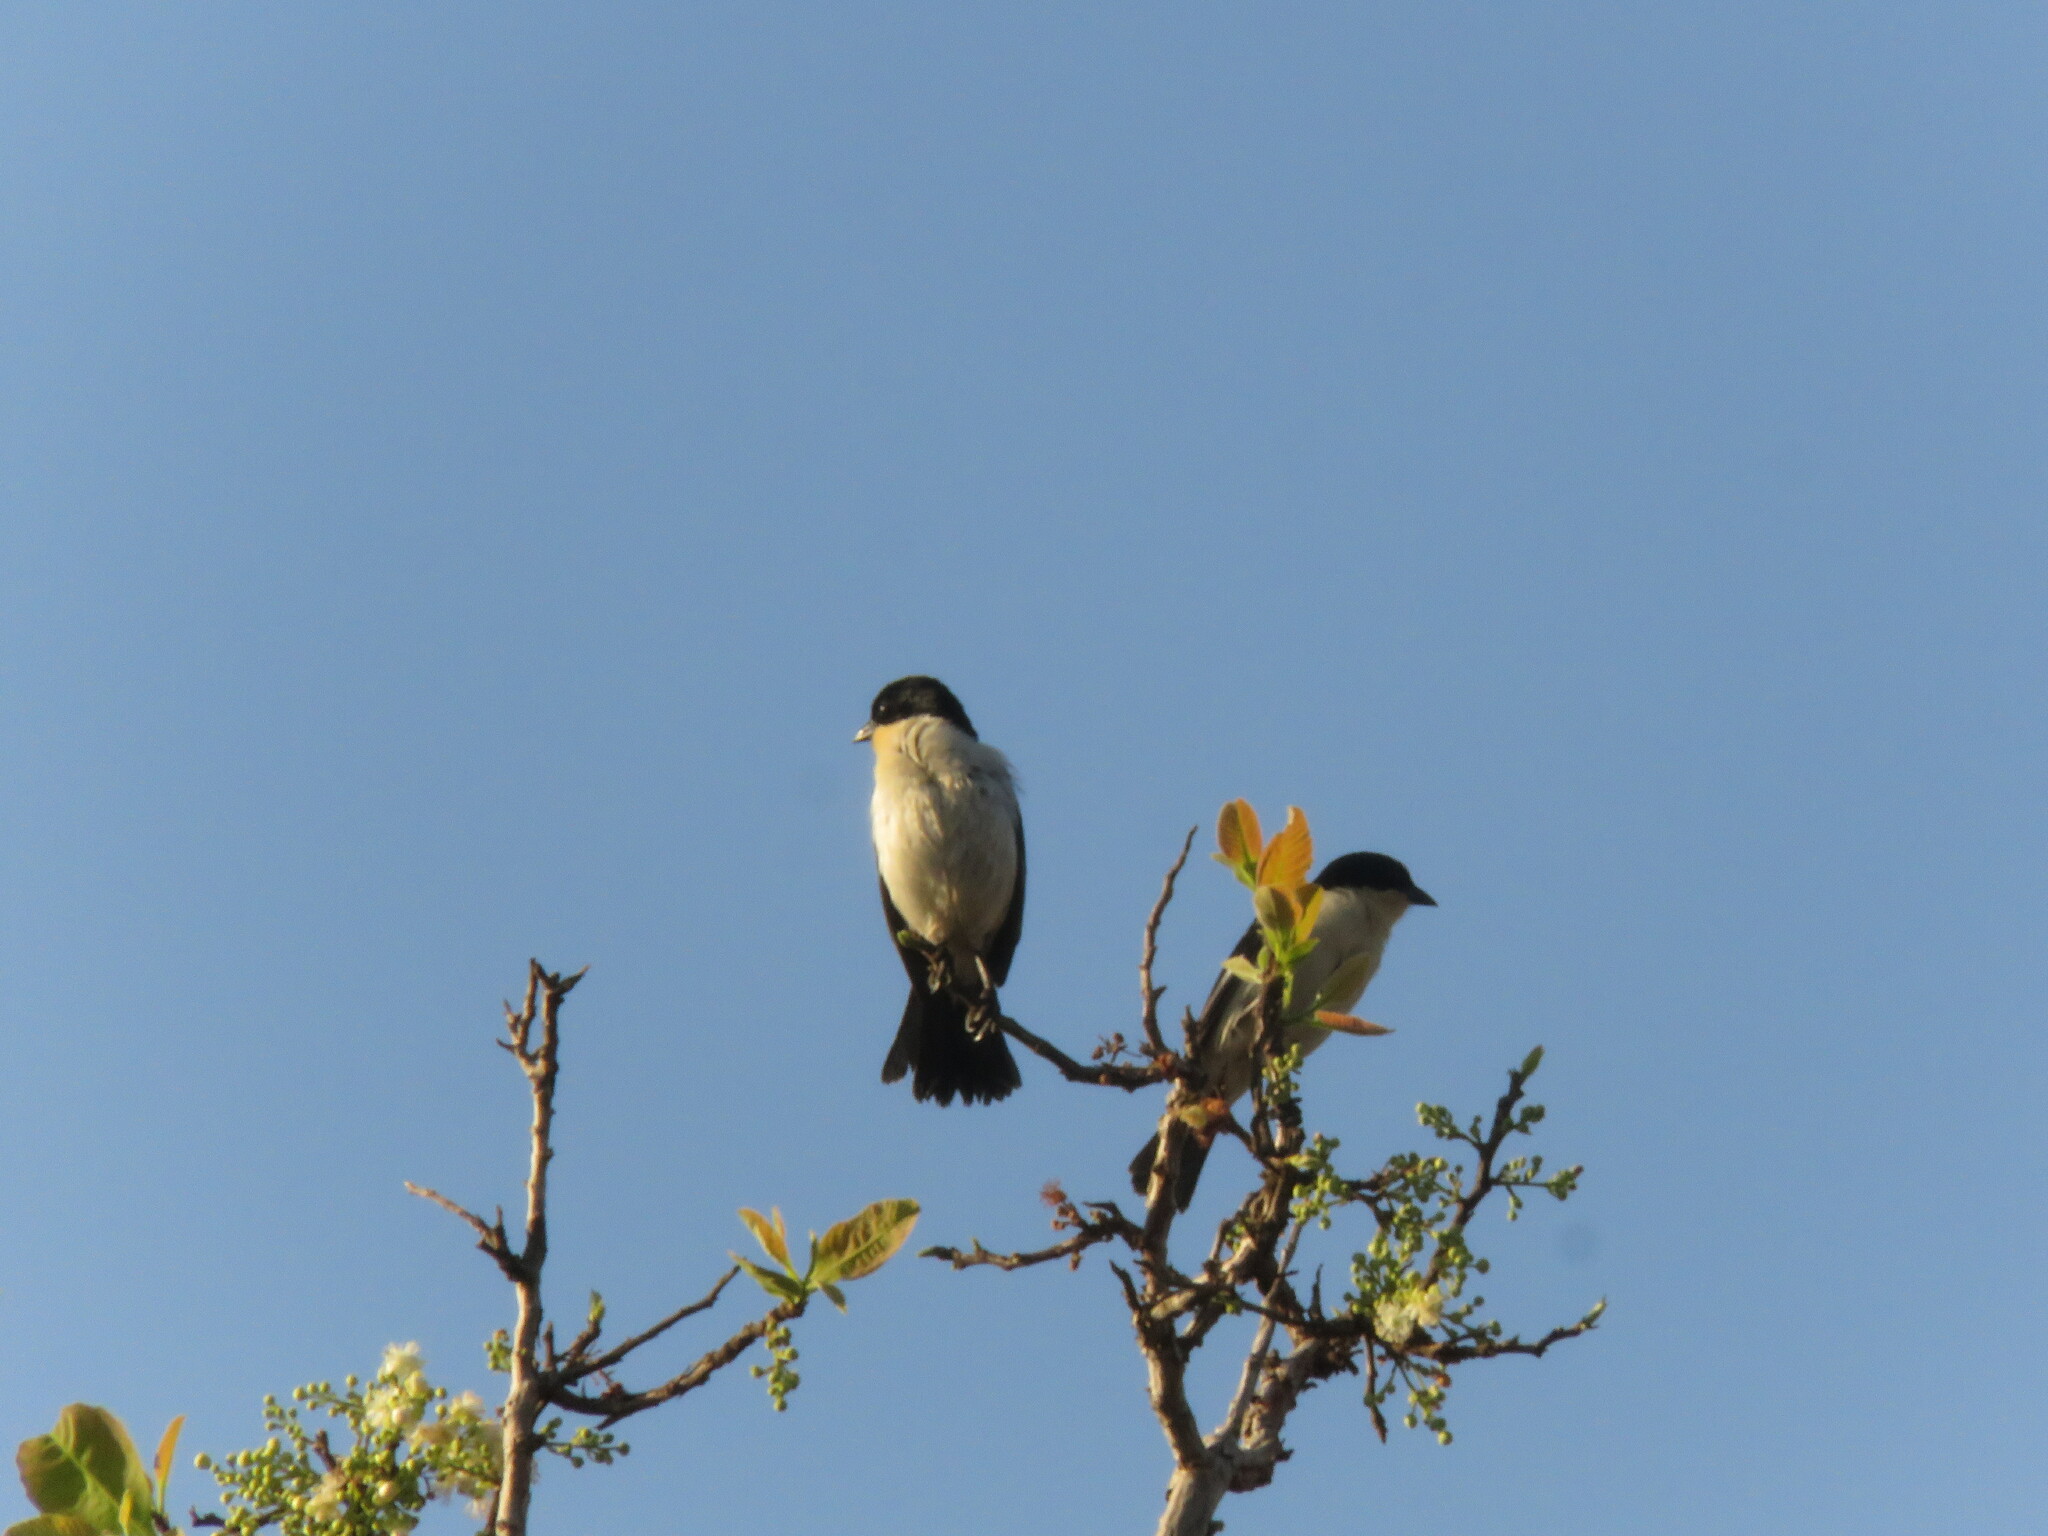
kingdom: Animalia
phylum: Chordata
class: Aves
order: Passeriformes
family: Thraupidae
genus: Cypsnagra
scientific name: Cypsnagra hirundinacea
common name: White-rumped tanager
